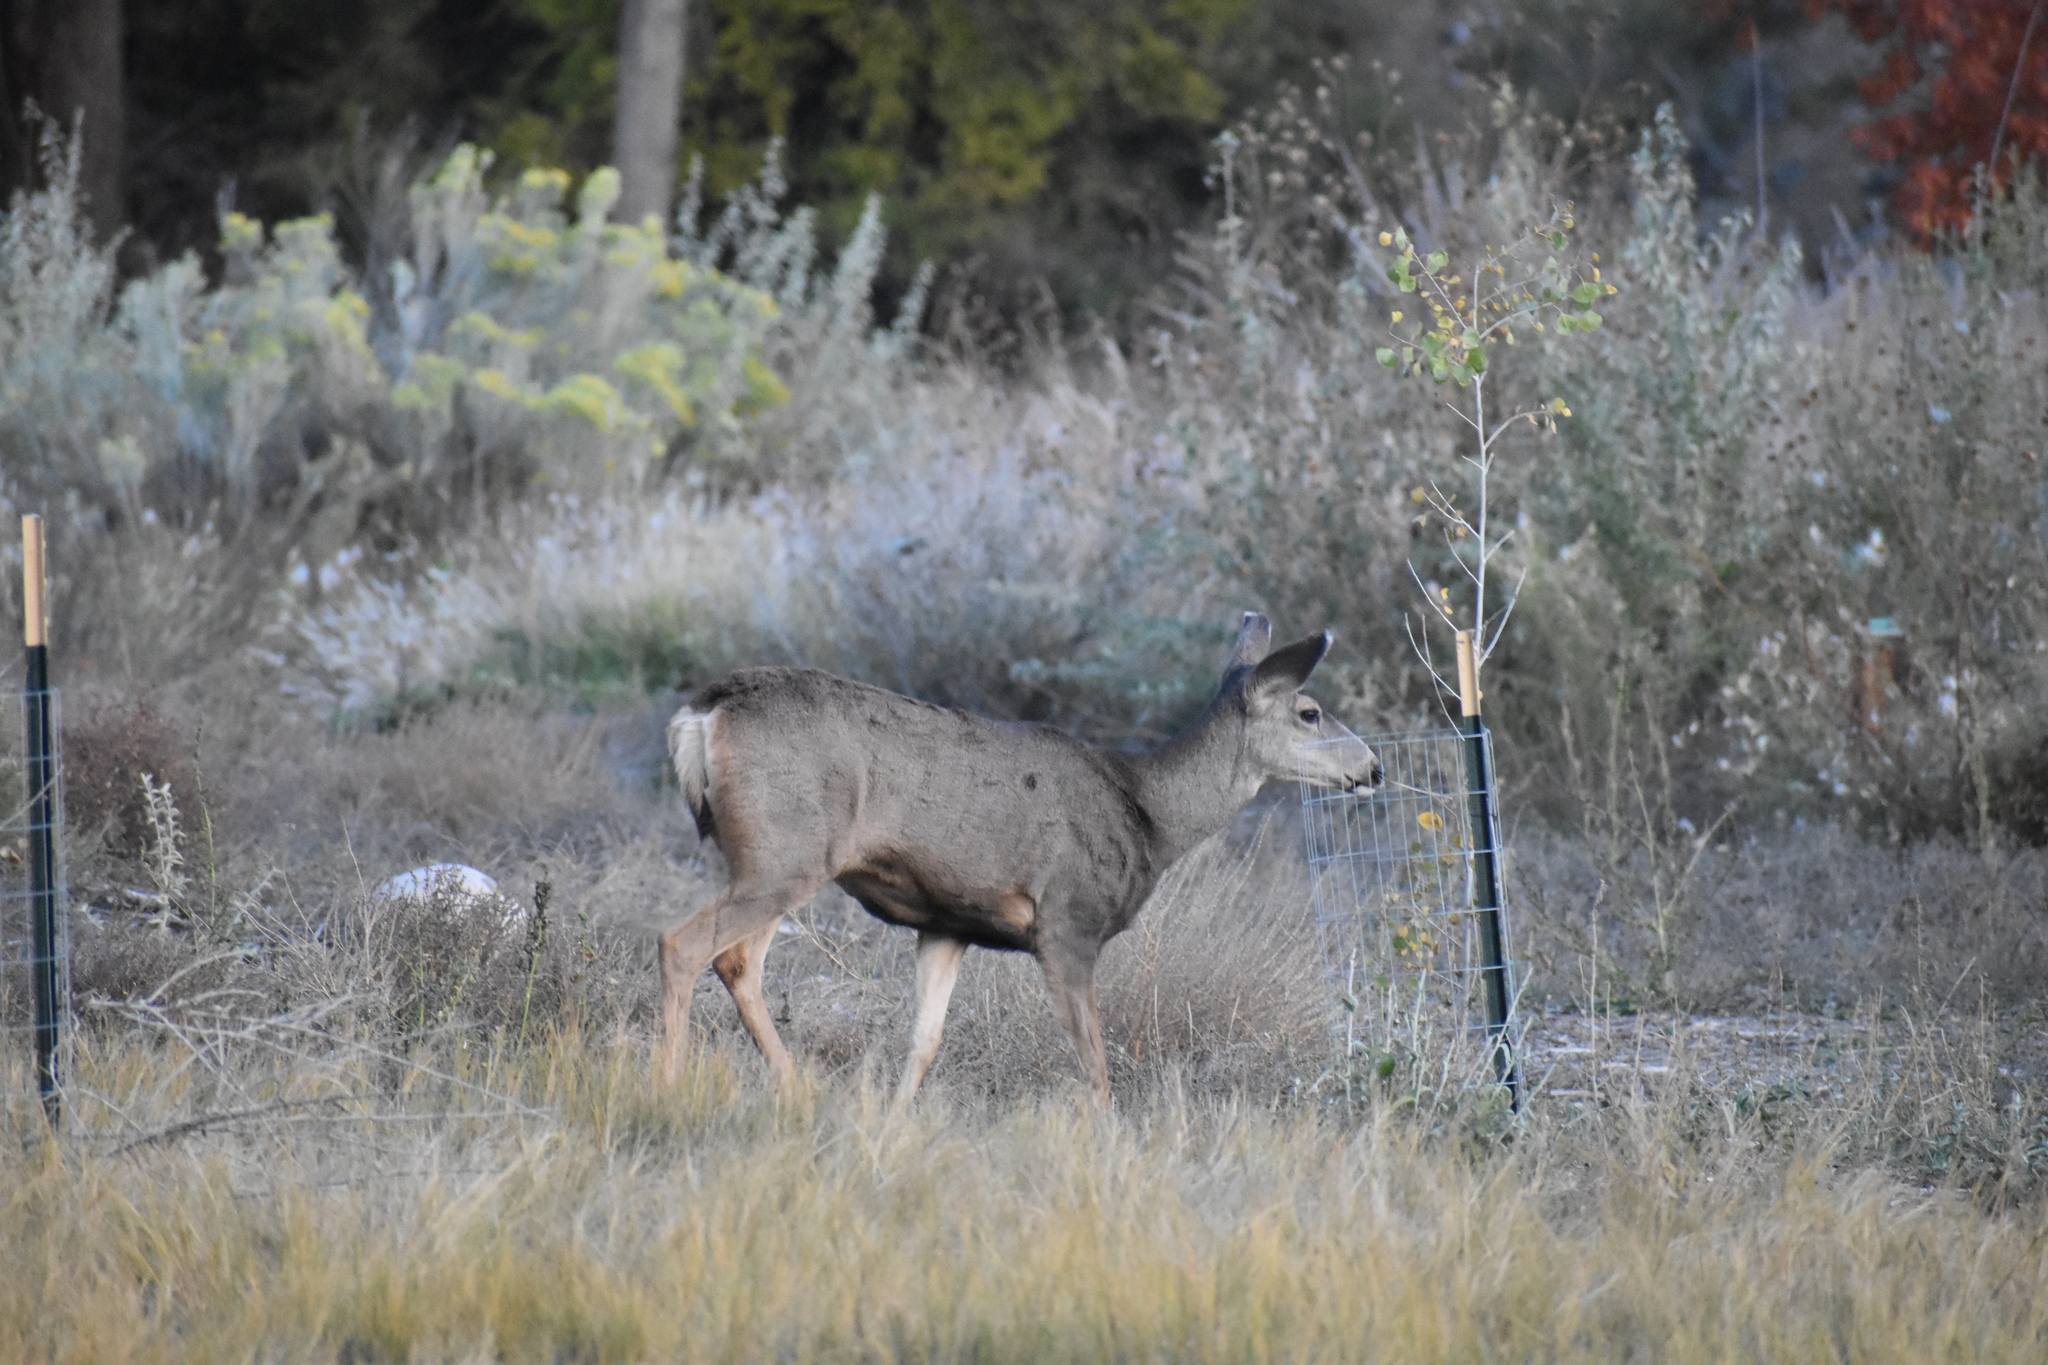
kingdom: Animalia
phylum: Chordata
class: Mammalia
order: Artiodactyla
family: Cervidae
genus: Odocoileus
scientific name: Odocoileus hemionus
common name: Mule deer
